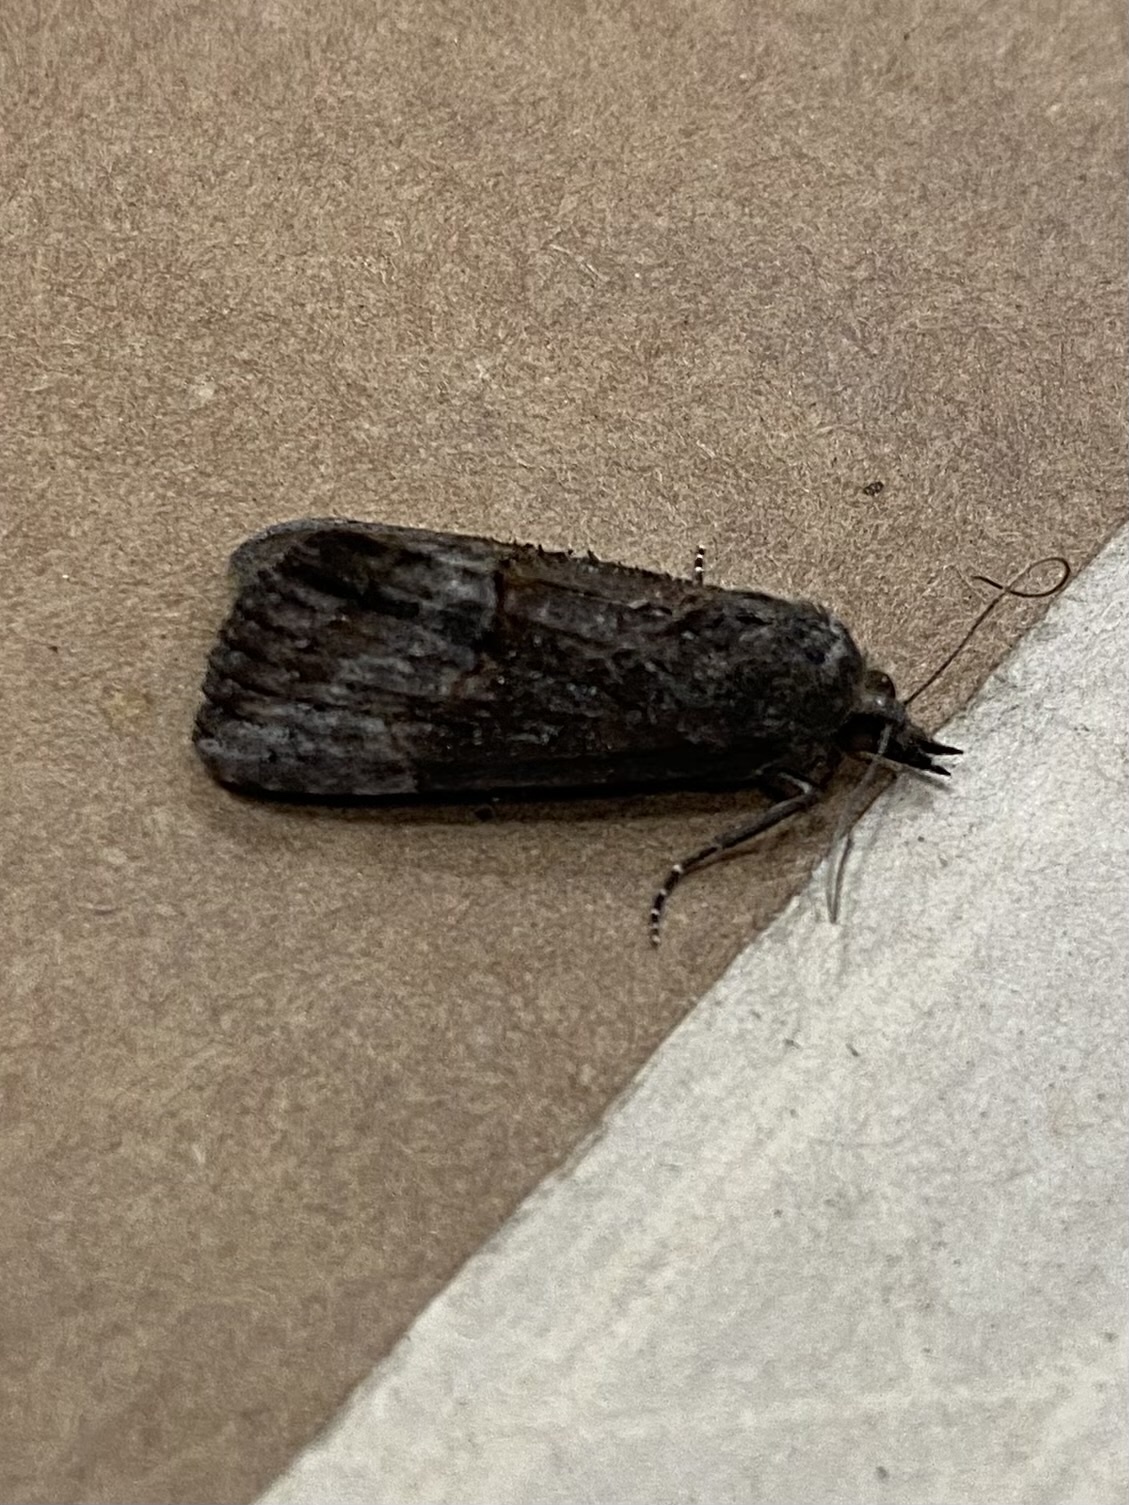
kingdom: Animalia
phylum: Arthropoda
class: Insecta
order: Lepidoptera
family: Erebidae
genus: Hypena
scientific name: Hypena scabra
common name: Green cloverworm
